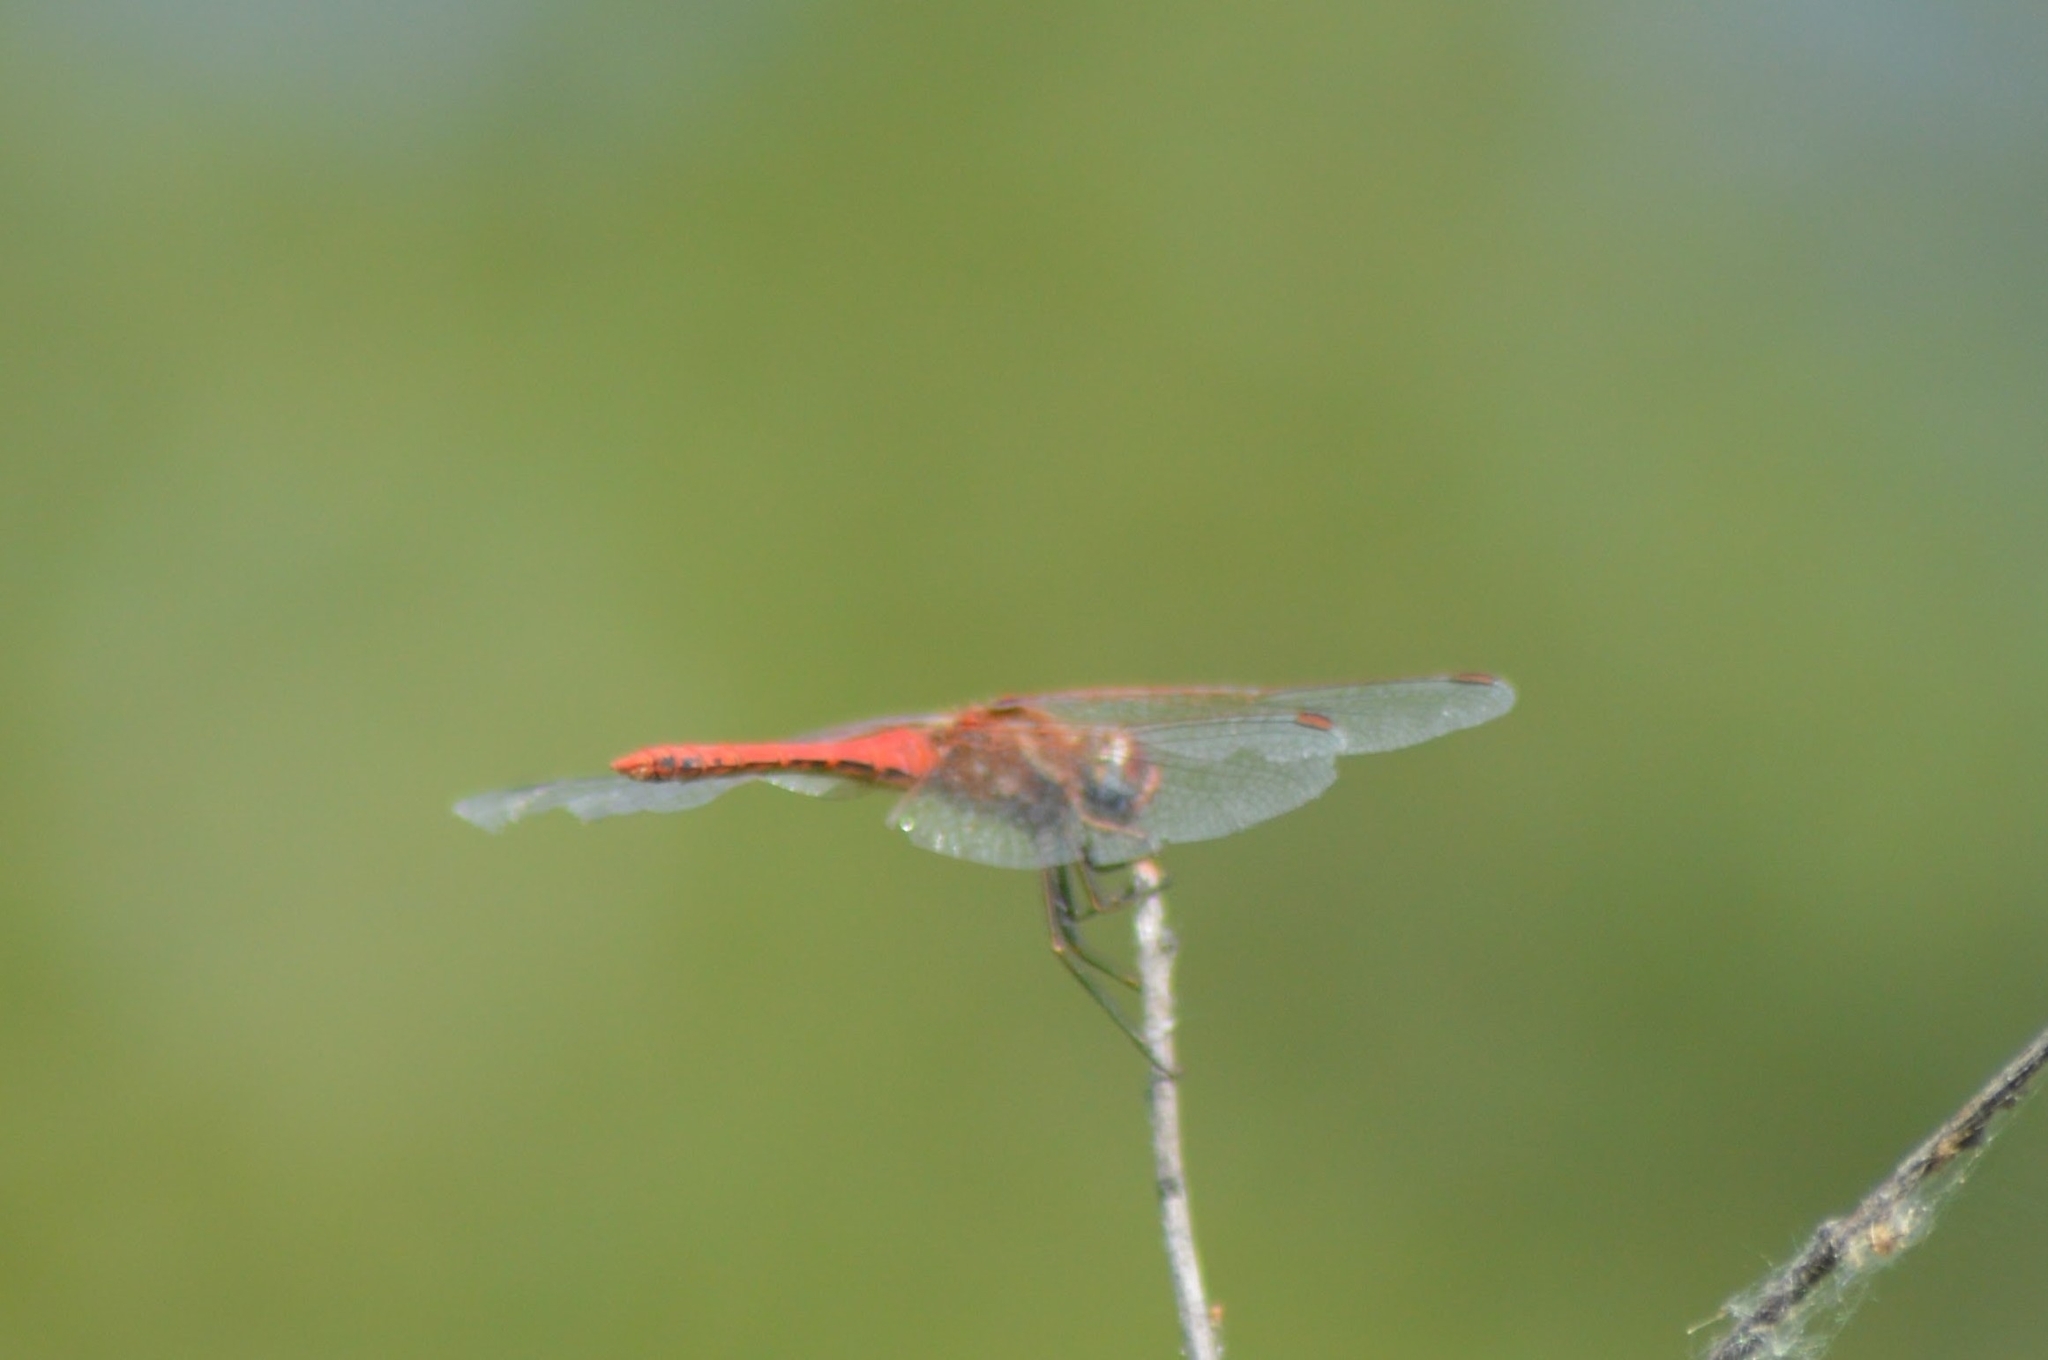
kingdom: Animalia
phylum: Arthropoda
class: Insecta
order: Odonata
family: Libellulidae
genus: Sympetrum
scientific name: Sympetrum fonscolombii
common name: Red-veined darter
